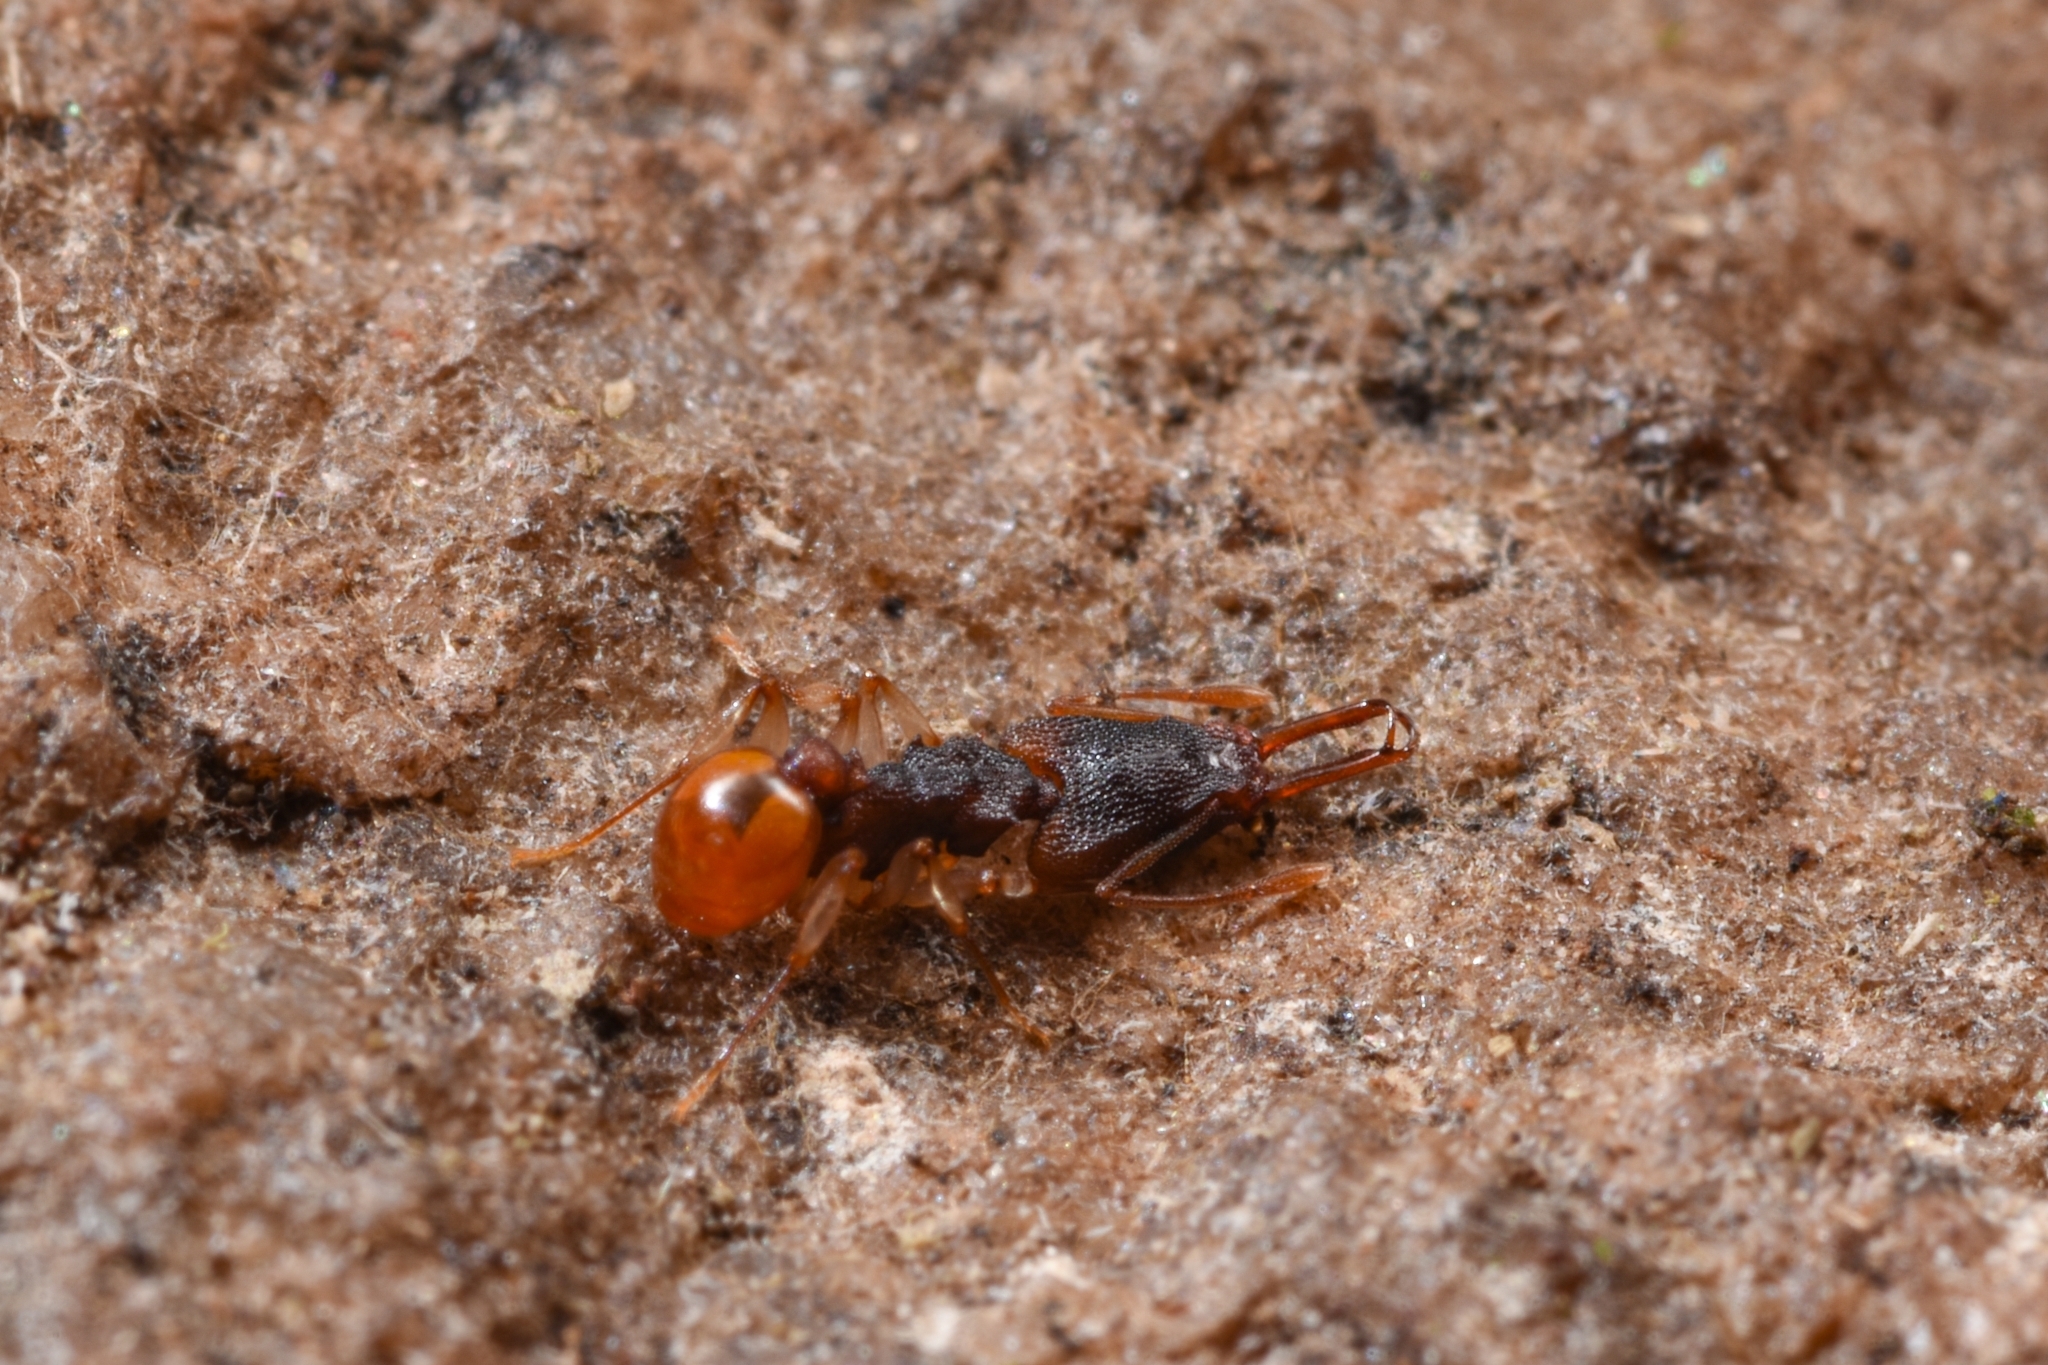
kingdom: Animalia
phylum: Arthropoda
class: Insecta
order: Hymenoptera
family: Formicidae
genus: Orectognathus
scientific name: Orectognathus mjobergi
